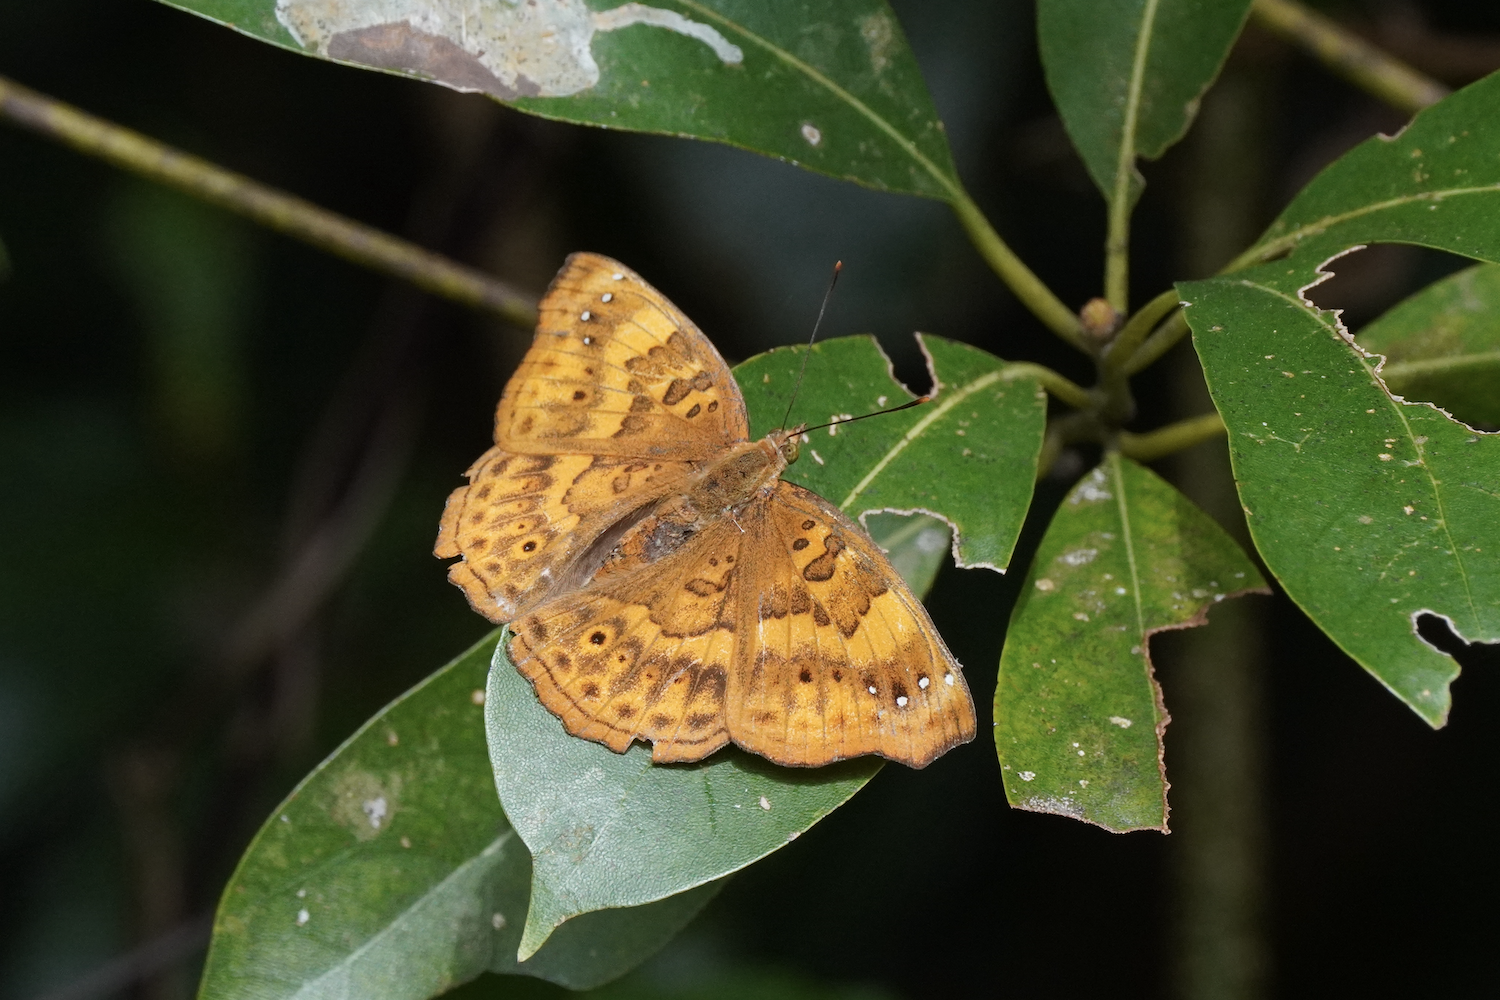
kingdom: Animalia
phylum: Arthropoda
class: Insecta
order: Lepidoptera
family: Nymphalidae
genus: Apatura
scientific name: Apatura Rohana spec
